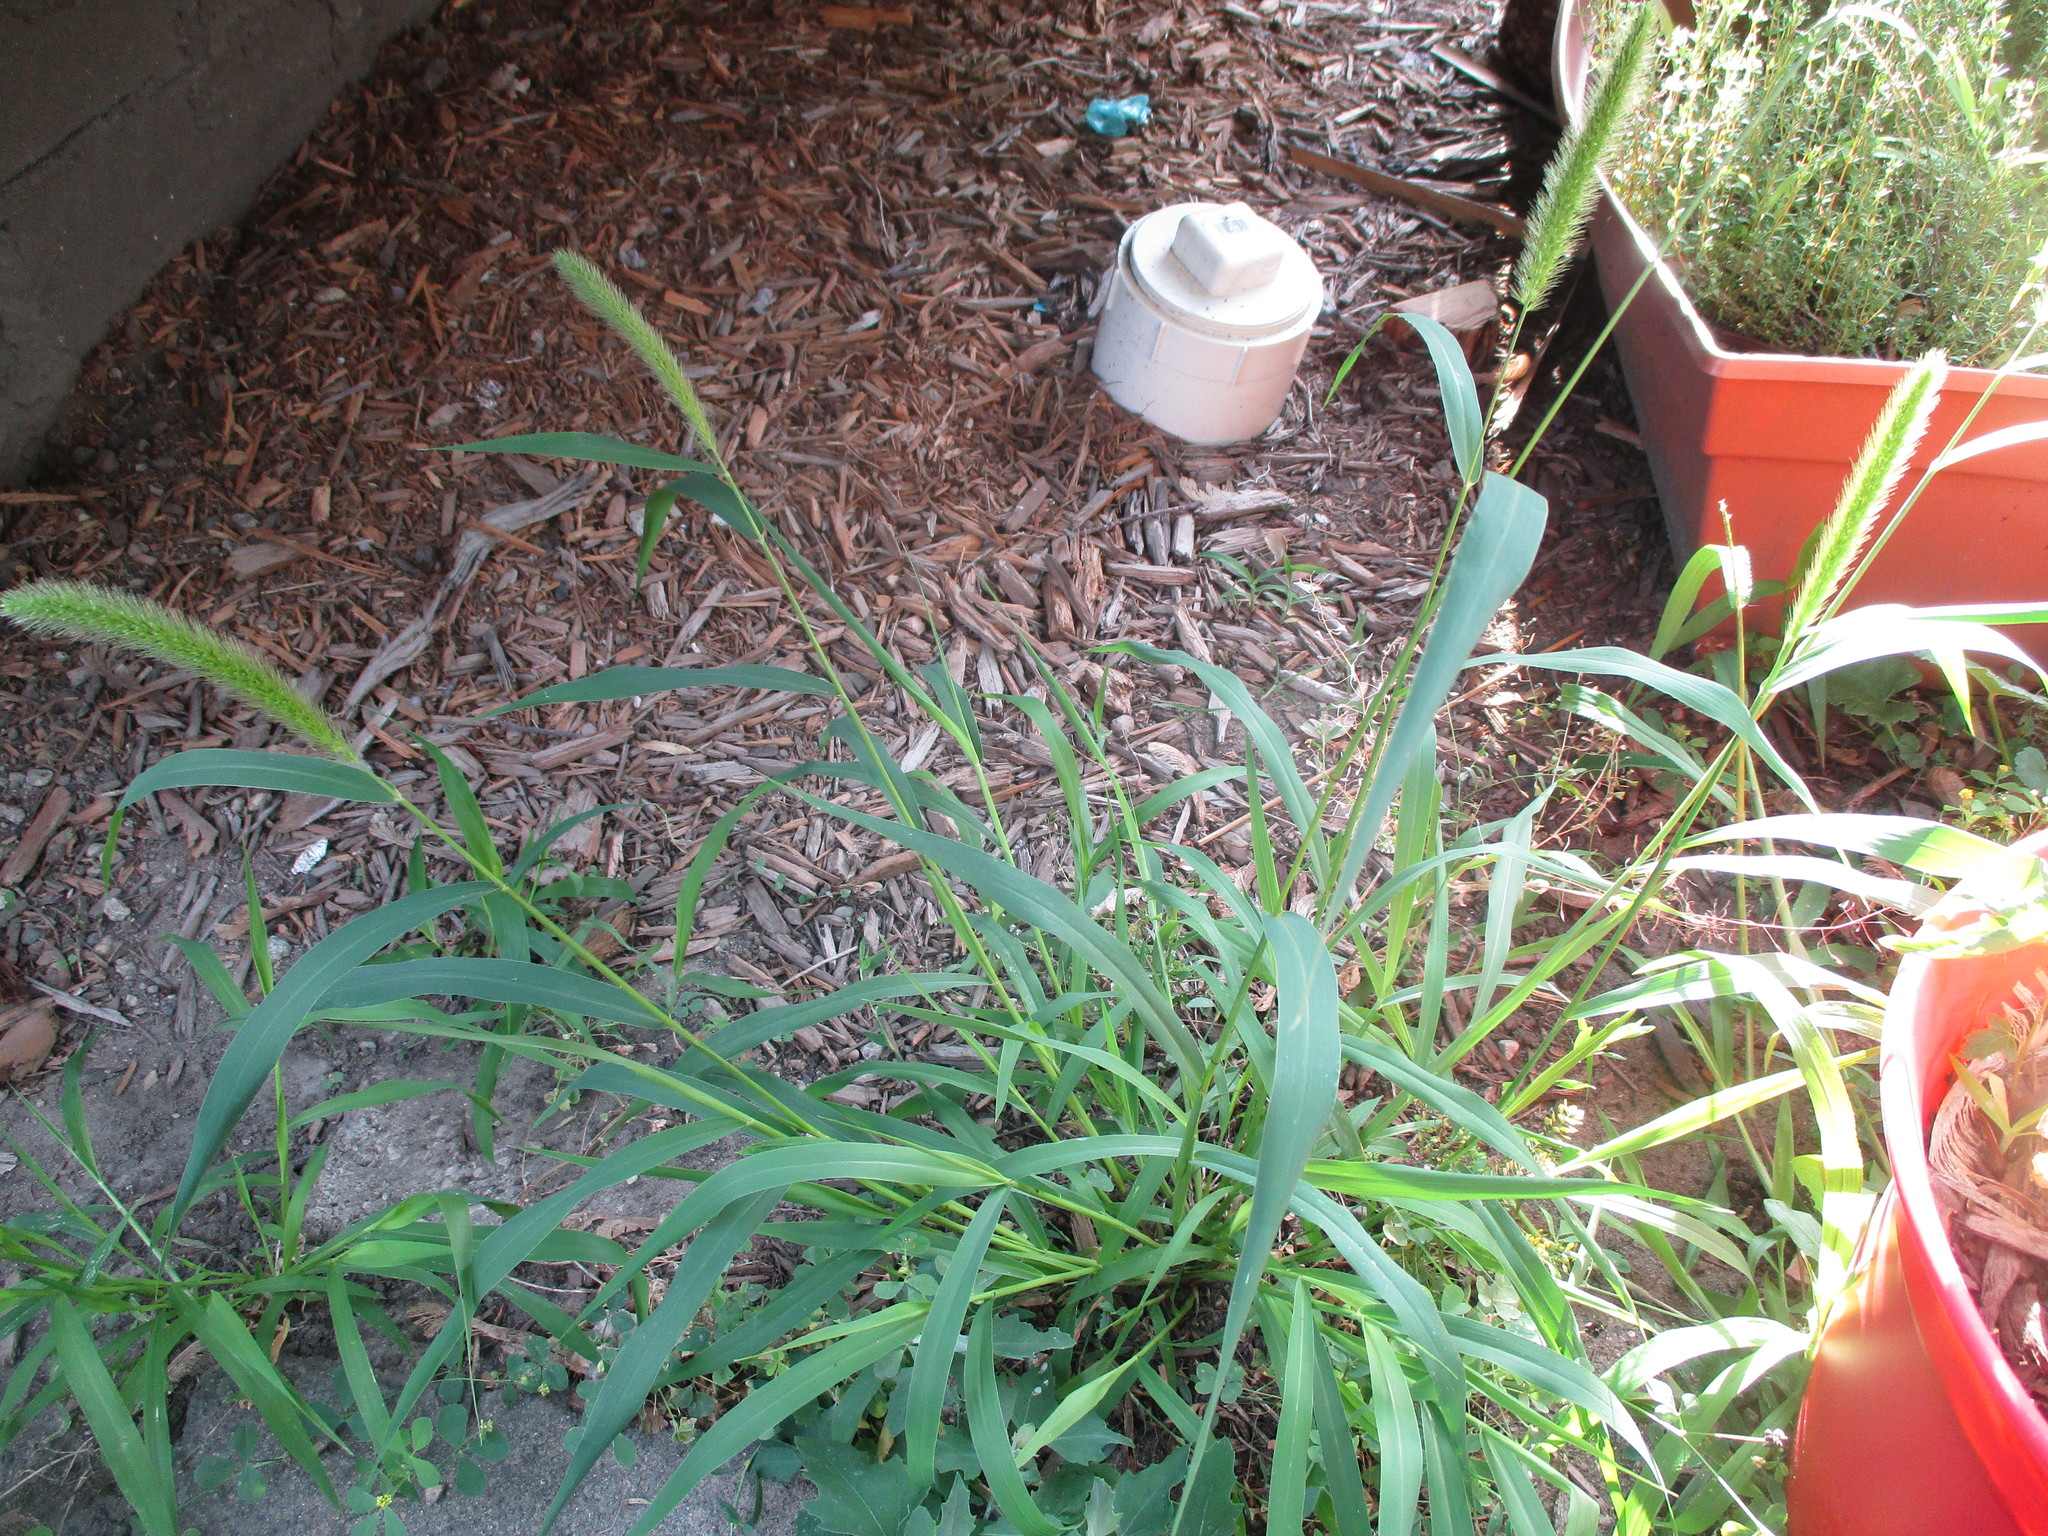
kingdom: Plantae
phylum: Tracheophyta
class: Liliopsida
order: Poales
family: Poaceae
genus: Setaria
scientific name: Setaria viridis
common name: Green bristlegrass
